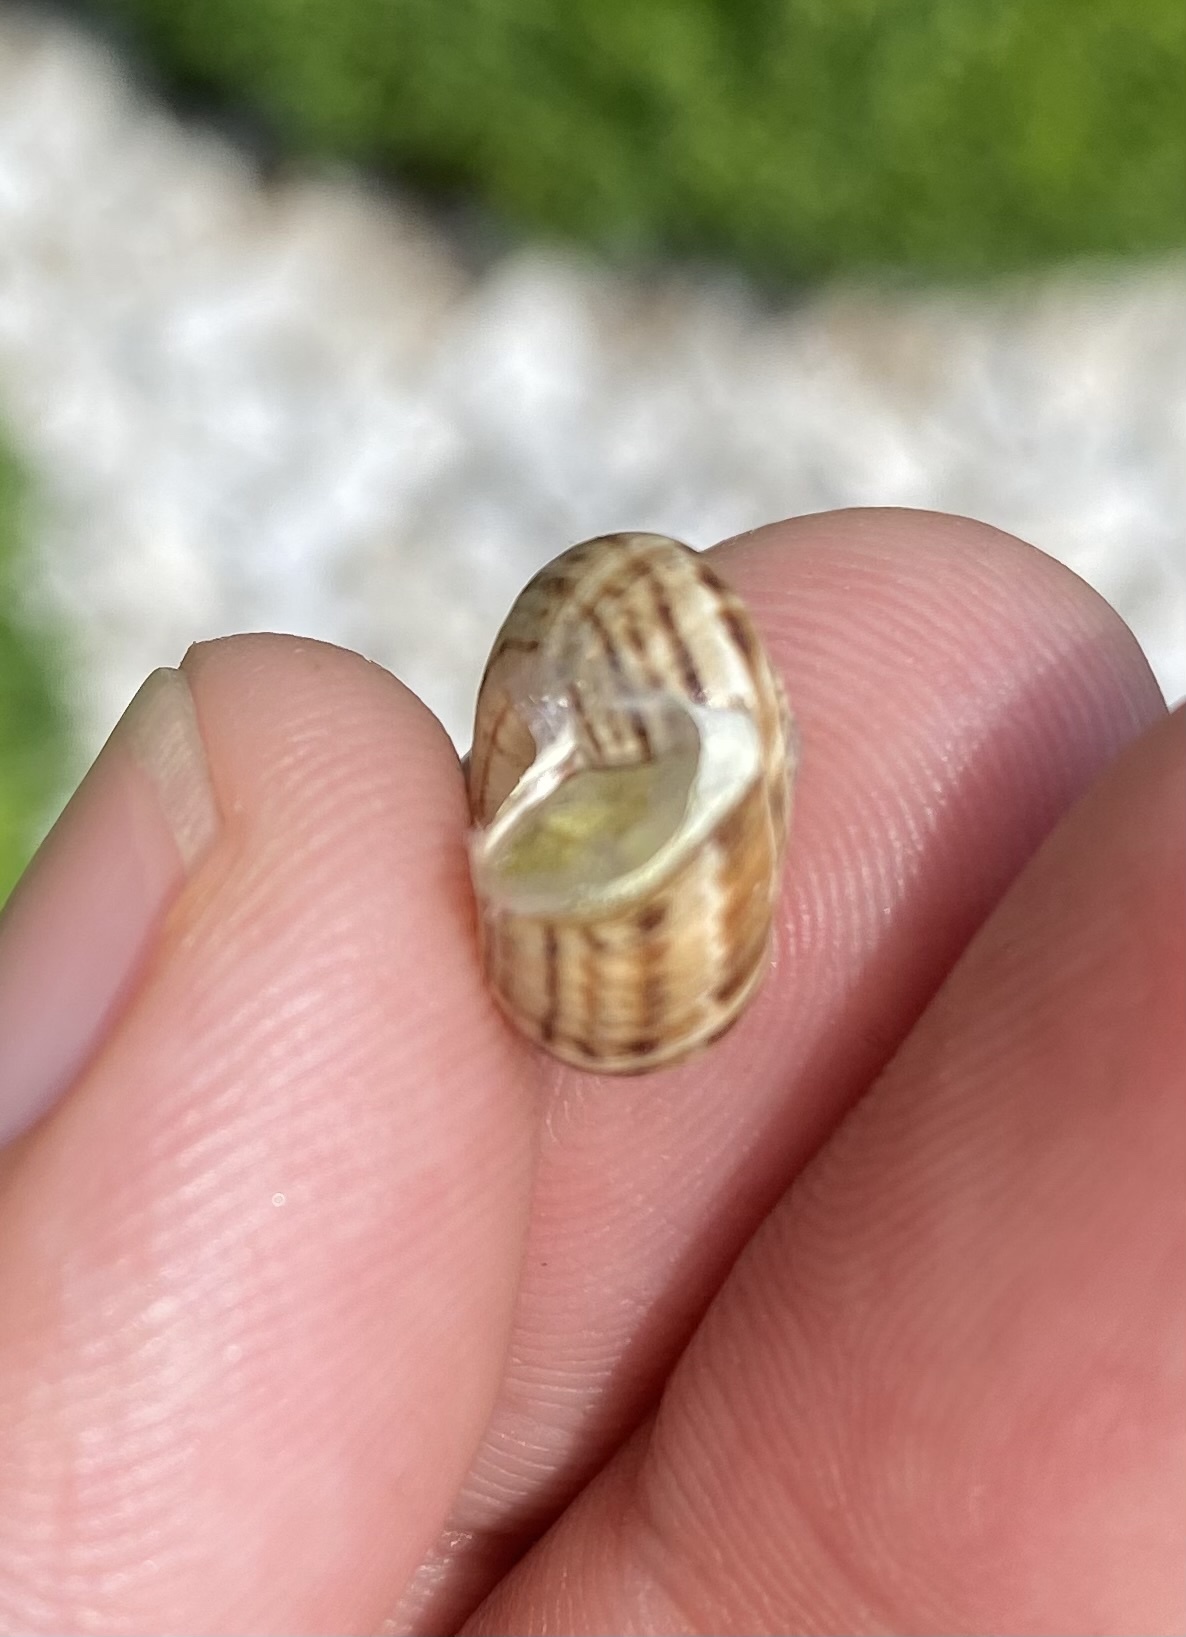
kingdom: Animalia
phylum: Mollusca
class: Gastropoda
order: Stylommatophora
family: Geomitridae
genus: Xeropicta
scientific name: Xeropicta derbentina
